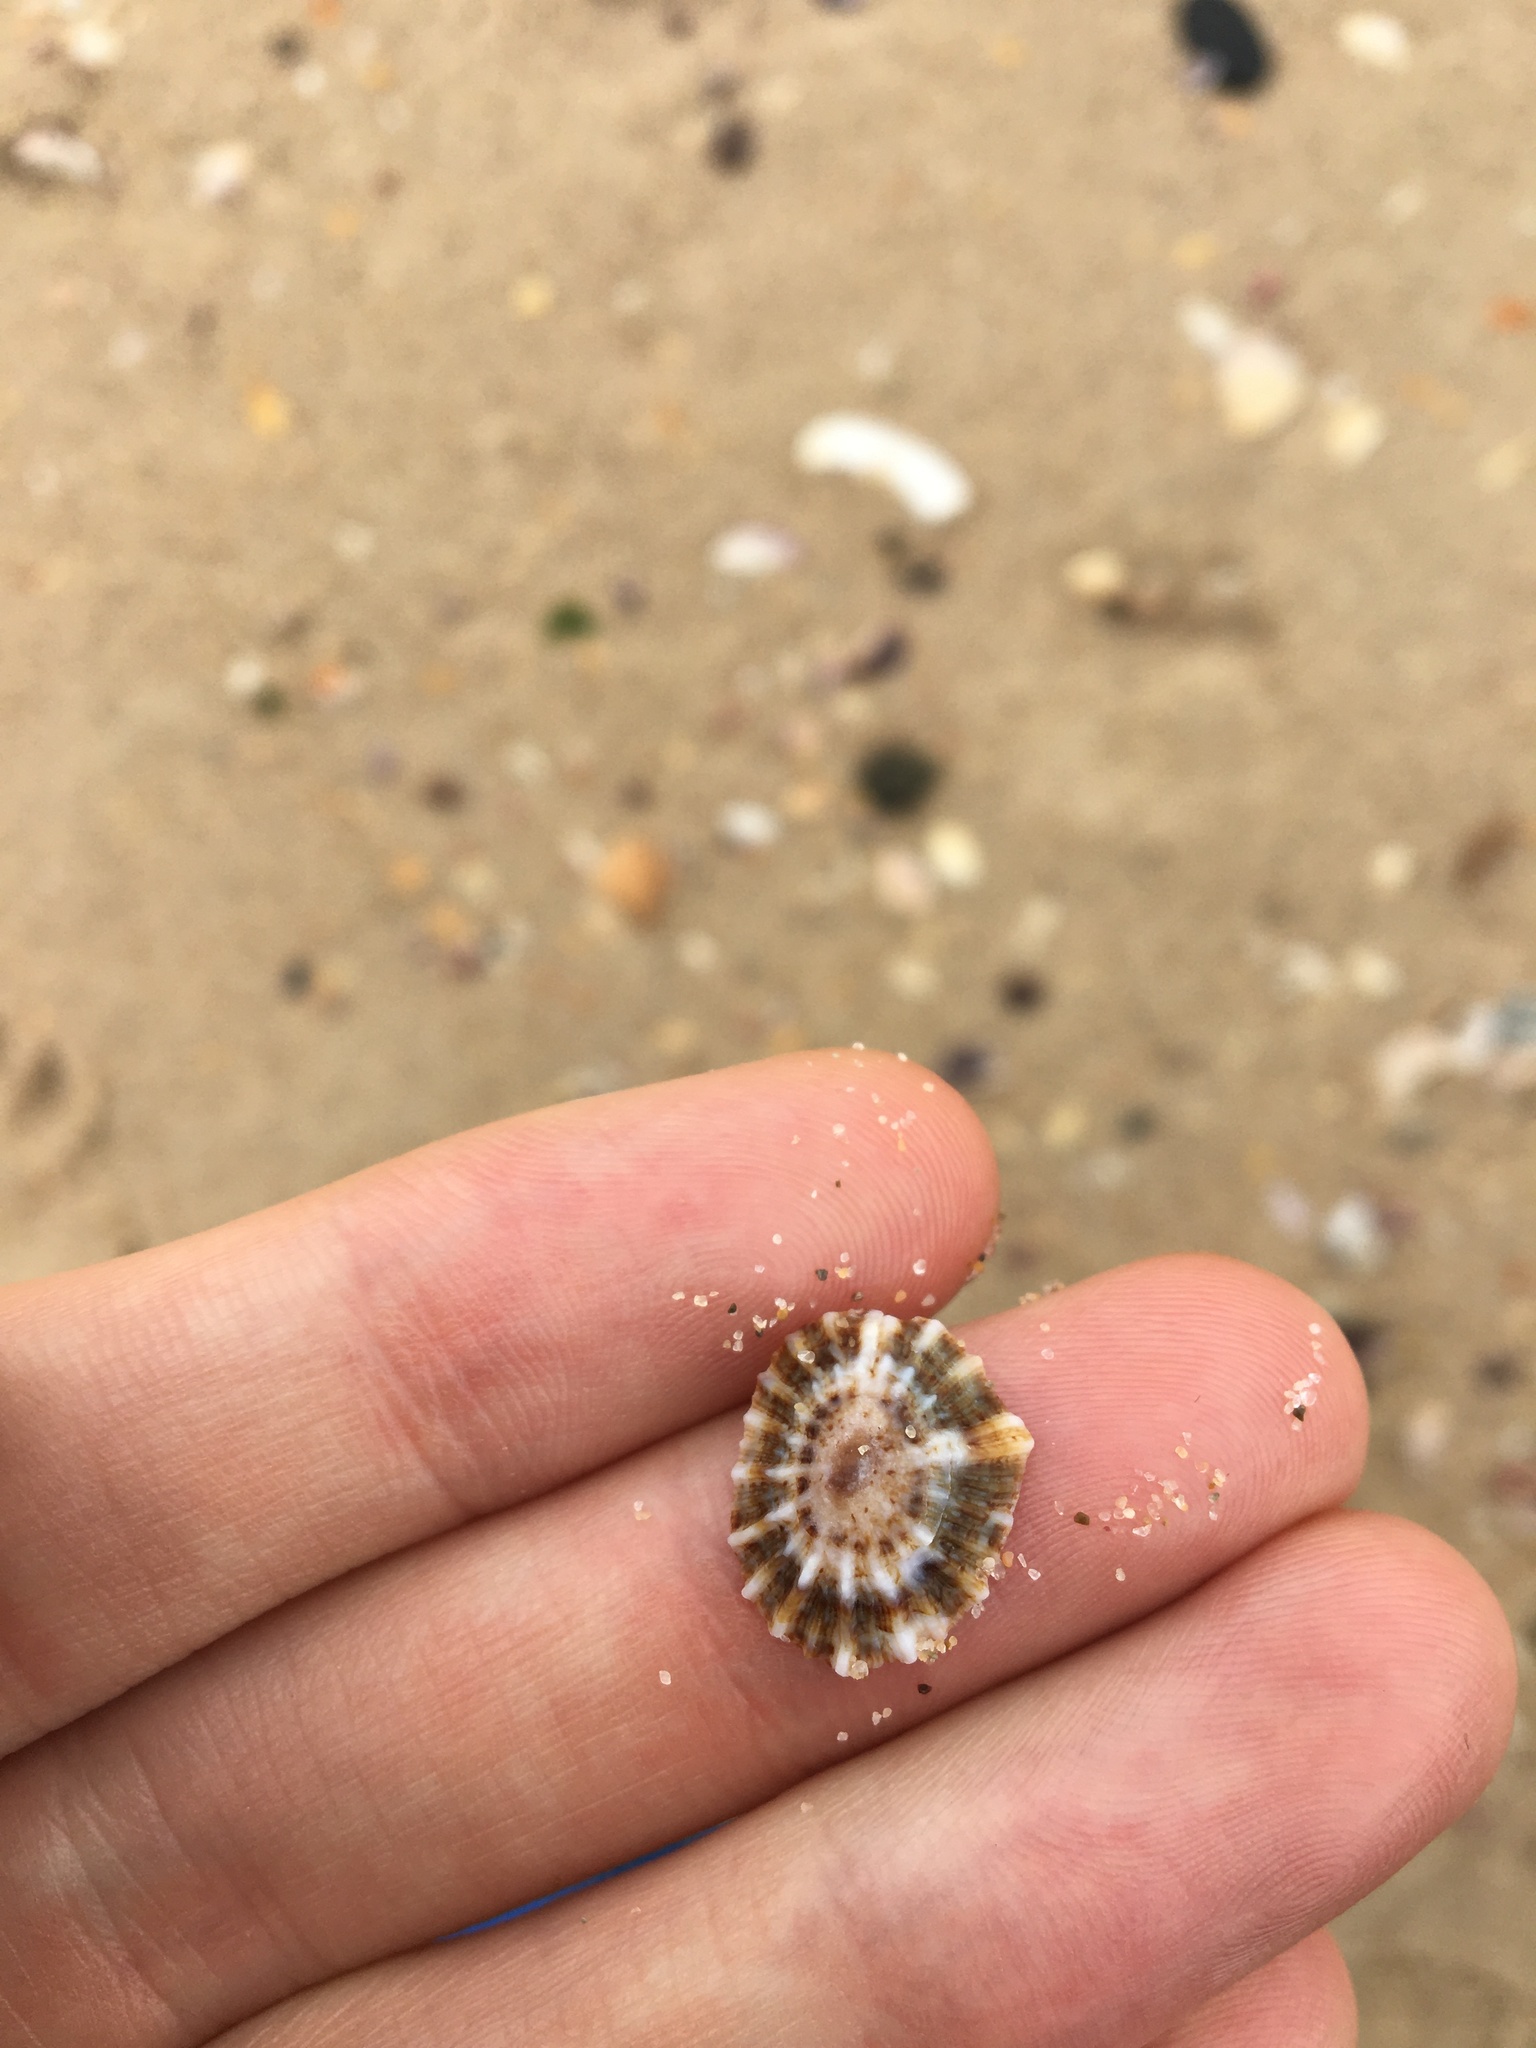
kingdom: Animalia
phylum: Mollusca
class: Gastropoda
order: Siphonariida
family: Siphonariidae
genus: Siphonaria
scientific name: Siphonaria denticulata
